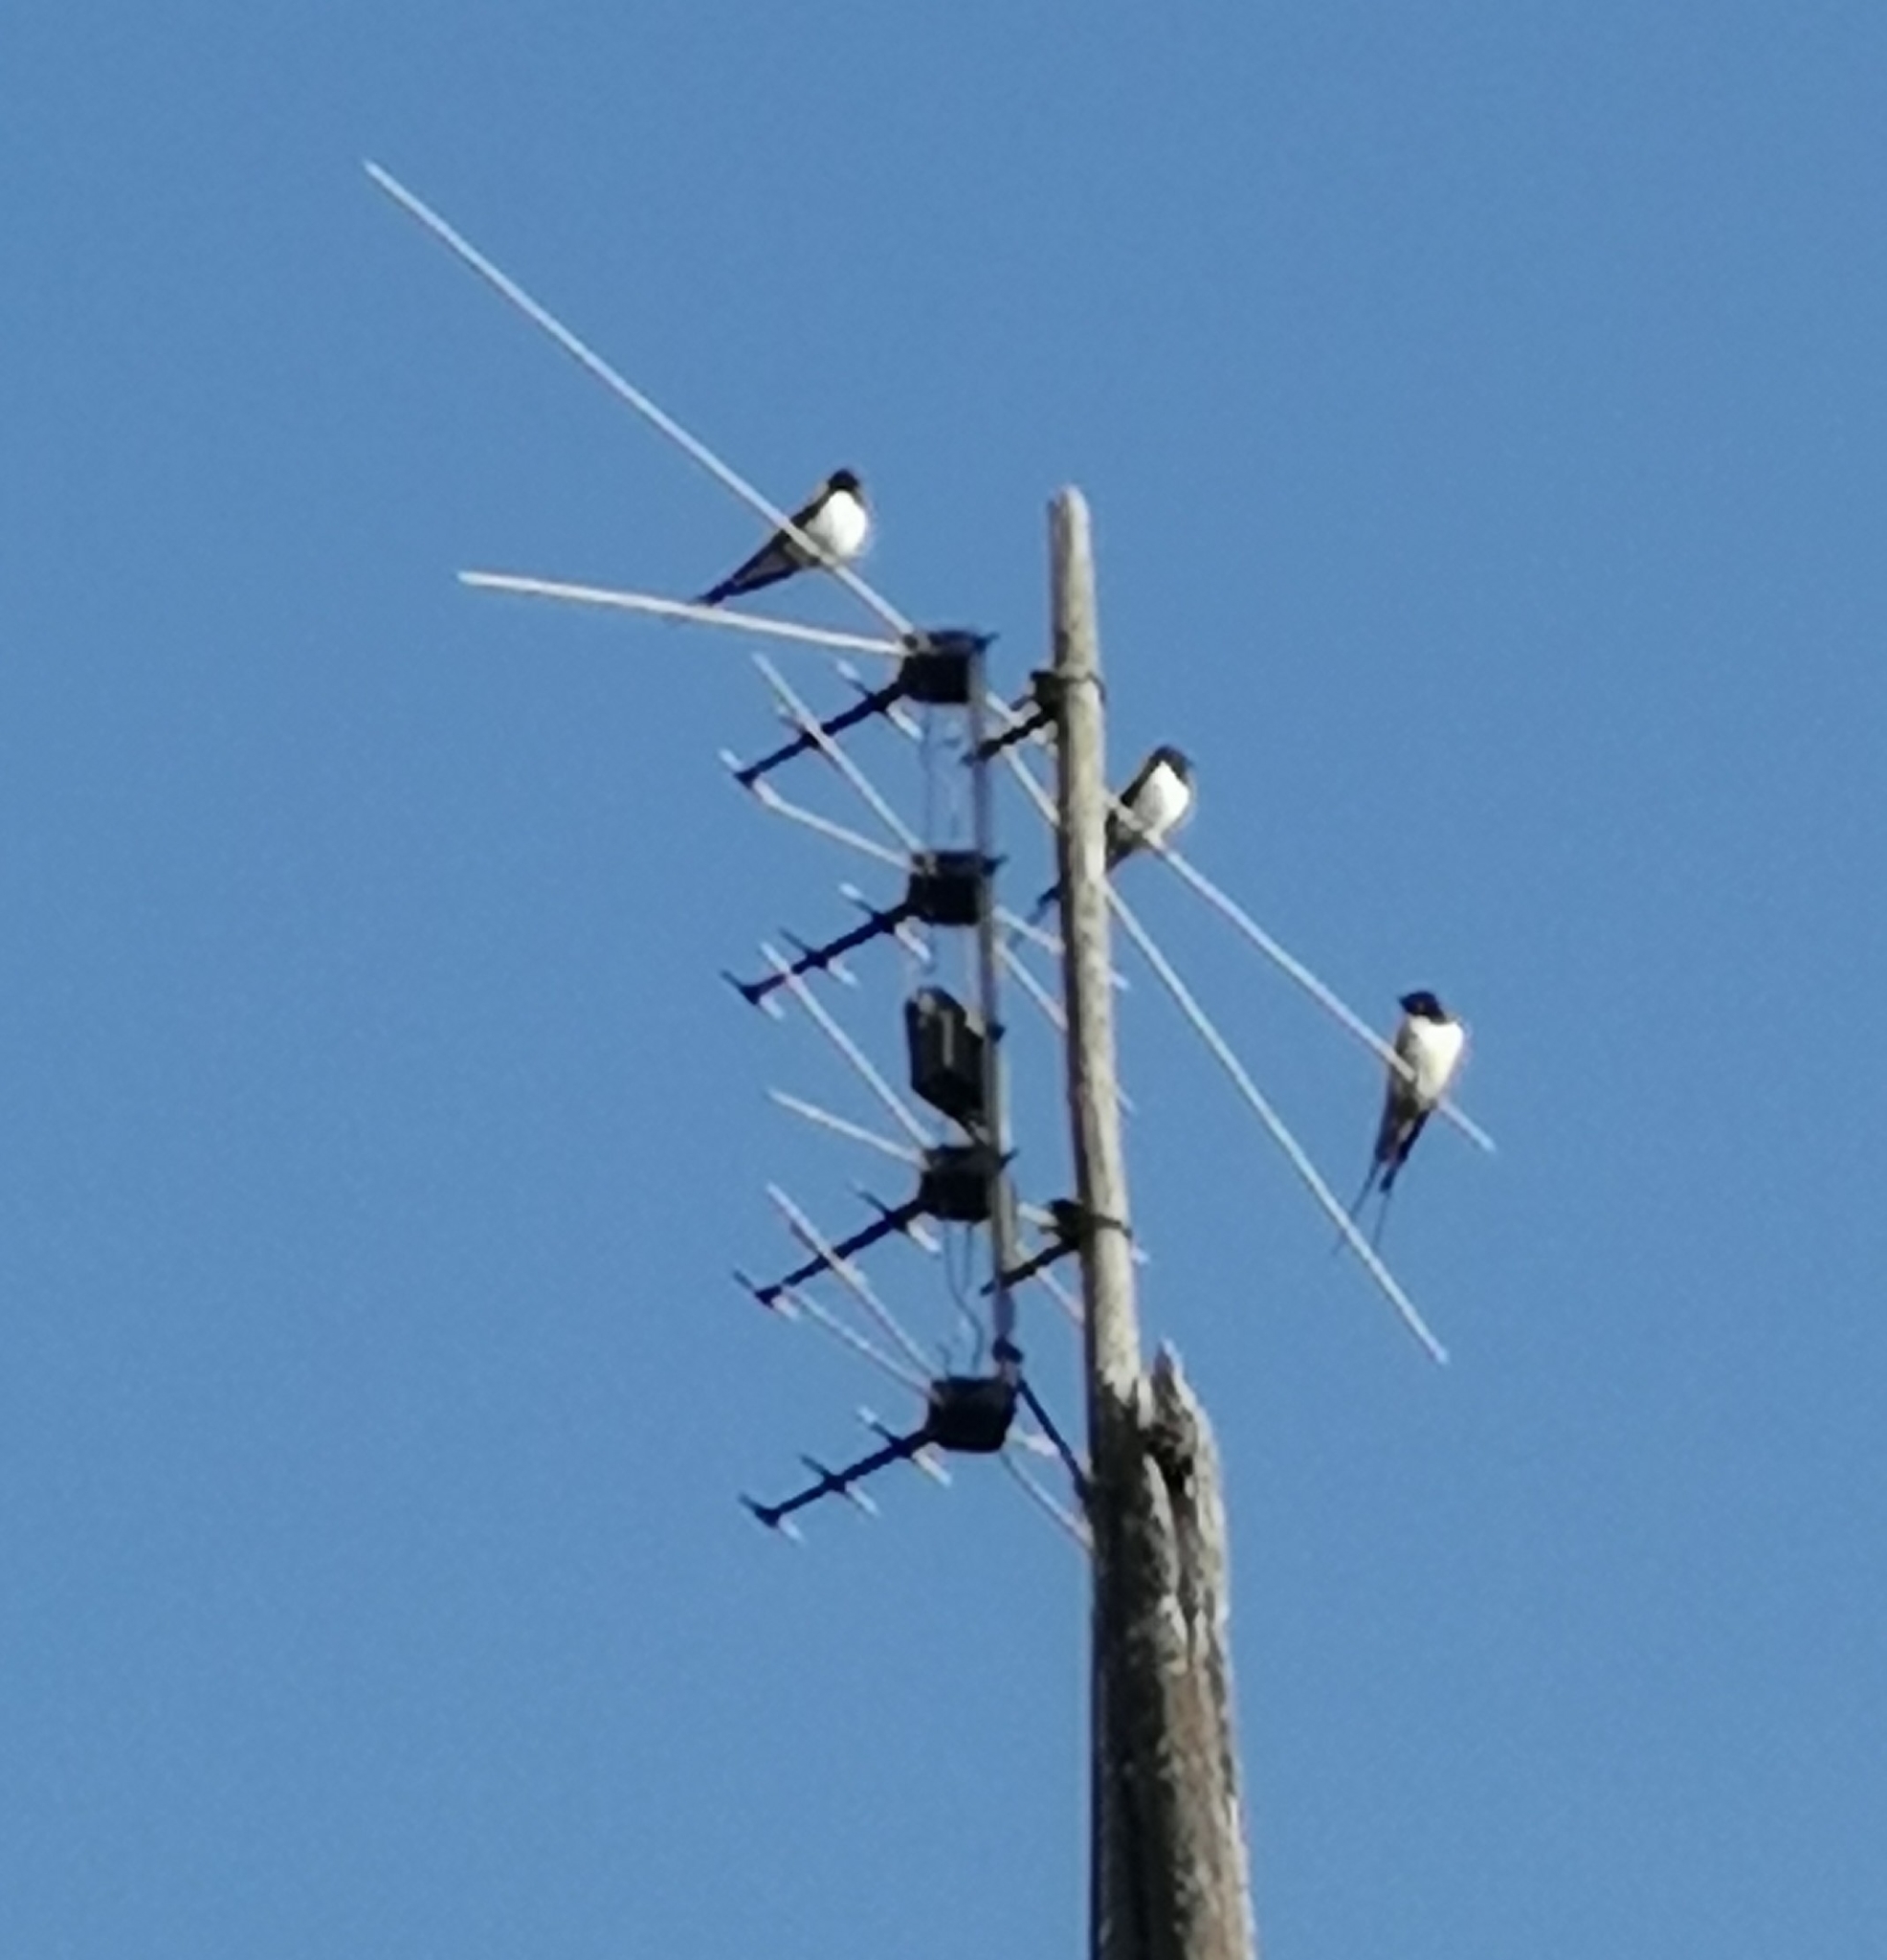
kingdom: Animalia
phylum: Chordata
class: Aves
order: Passeriformes
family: Hirundinidae
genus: Hirundo
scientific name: Hirundo rustica
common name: Barn swallow
